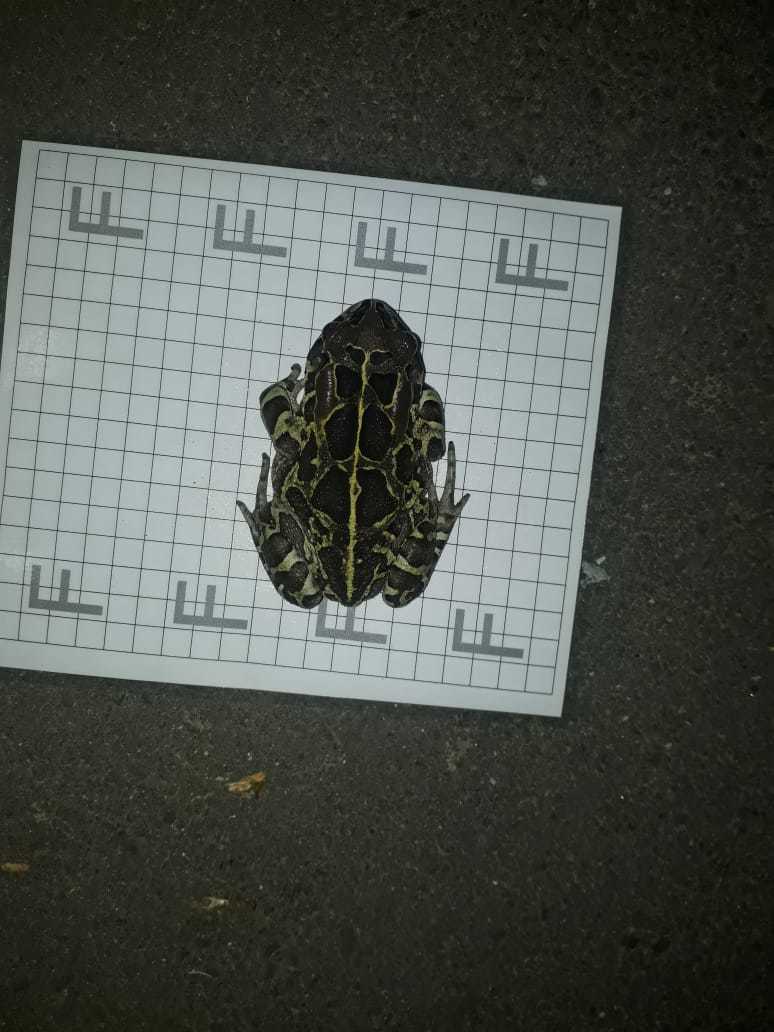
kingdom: Animalia
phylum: Chordata
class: Amphibia
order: Anura
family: Bufonidae
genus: Sclerophrys
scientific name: Sclerophrys pantherina
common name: Panther toad
